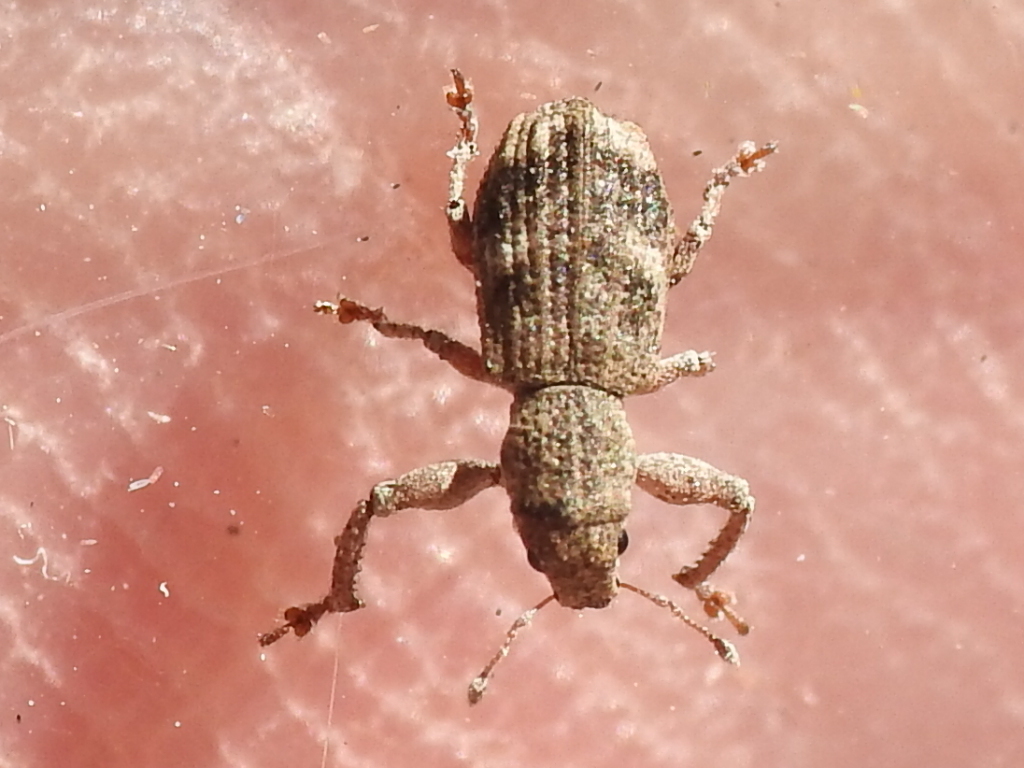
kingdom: Animalia
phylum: Arthropoda
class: Insecta
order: Coleoptera
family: Curculionidae
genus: Pandeleteius
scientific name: Pandeleteius cinereus
